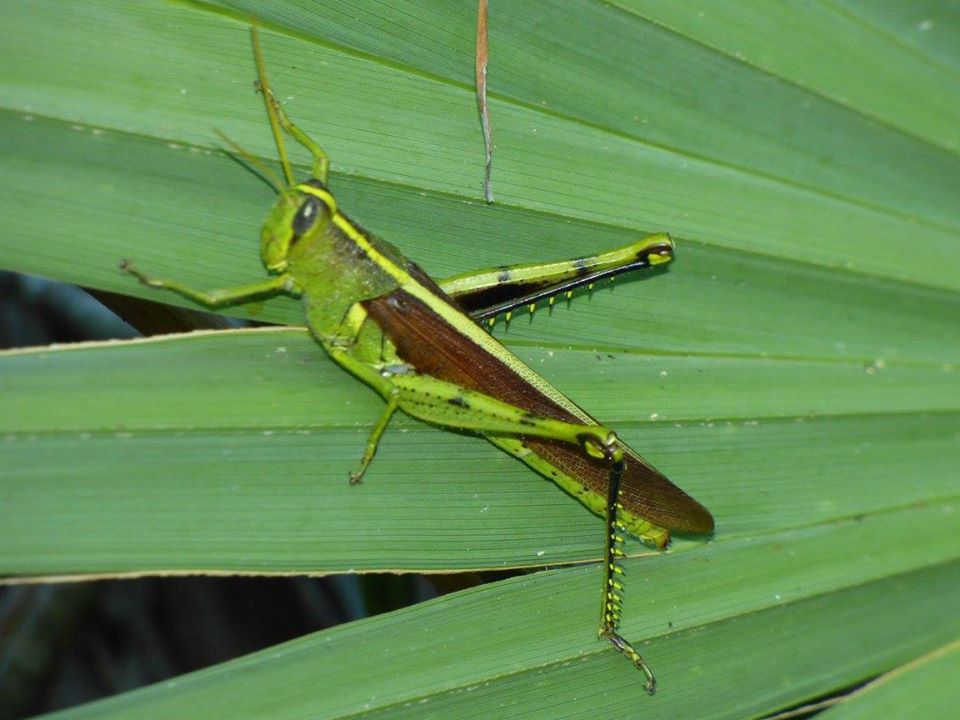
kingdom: Animalia
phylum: Arthropoda
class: Insecta
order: Orthoptera
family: Acrididae
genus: Schistocerca
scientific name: Schistocerca obscura
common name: Obscure bird grasshopper
